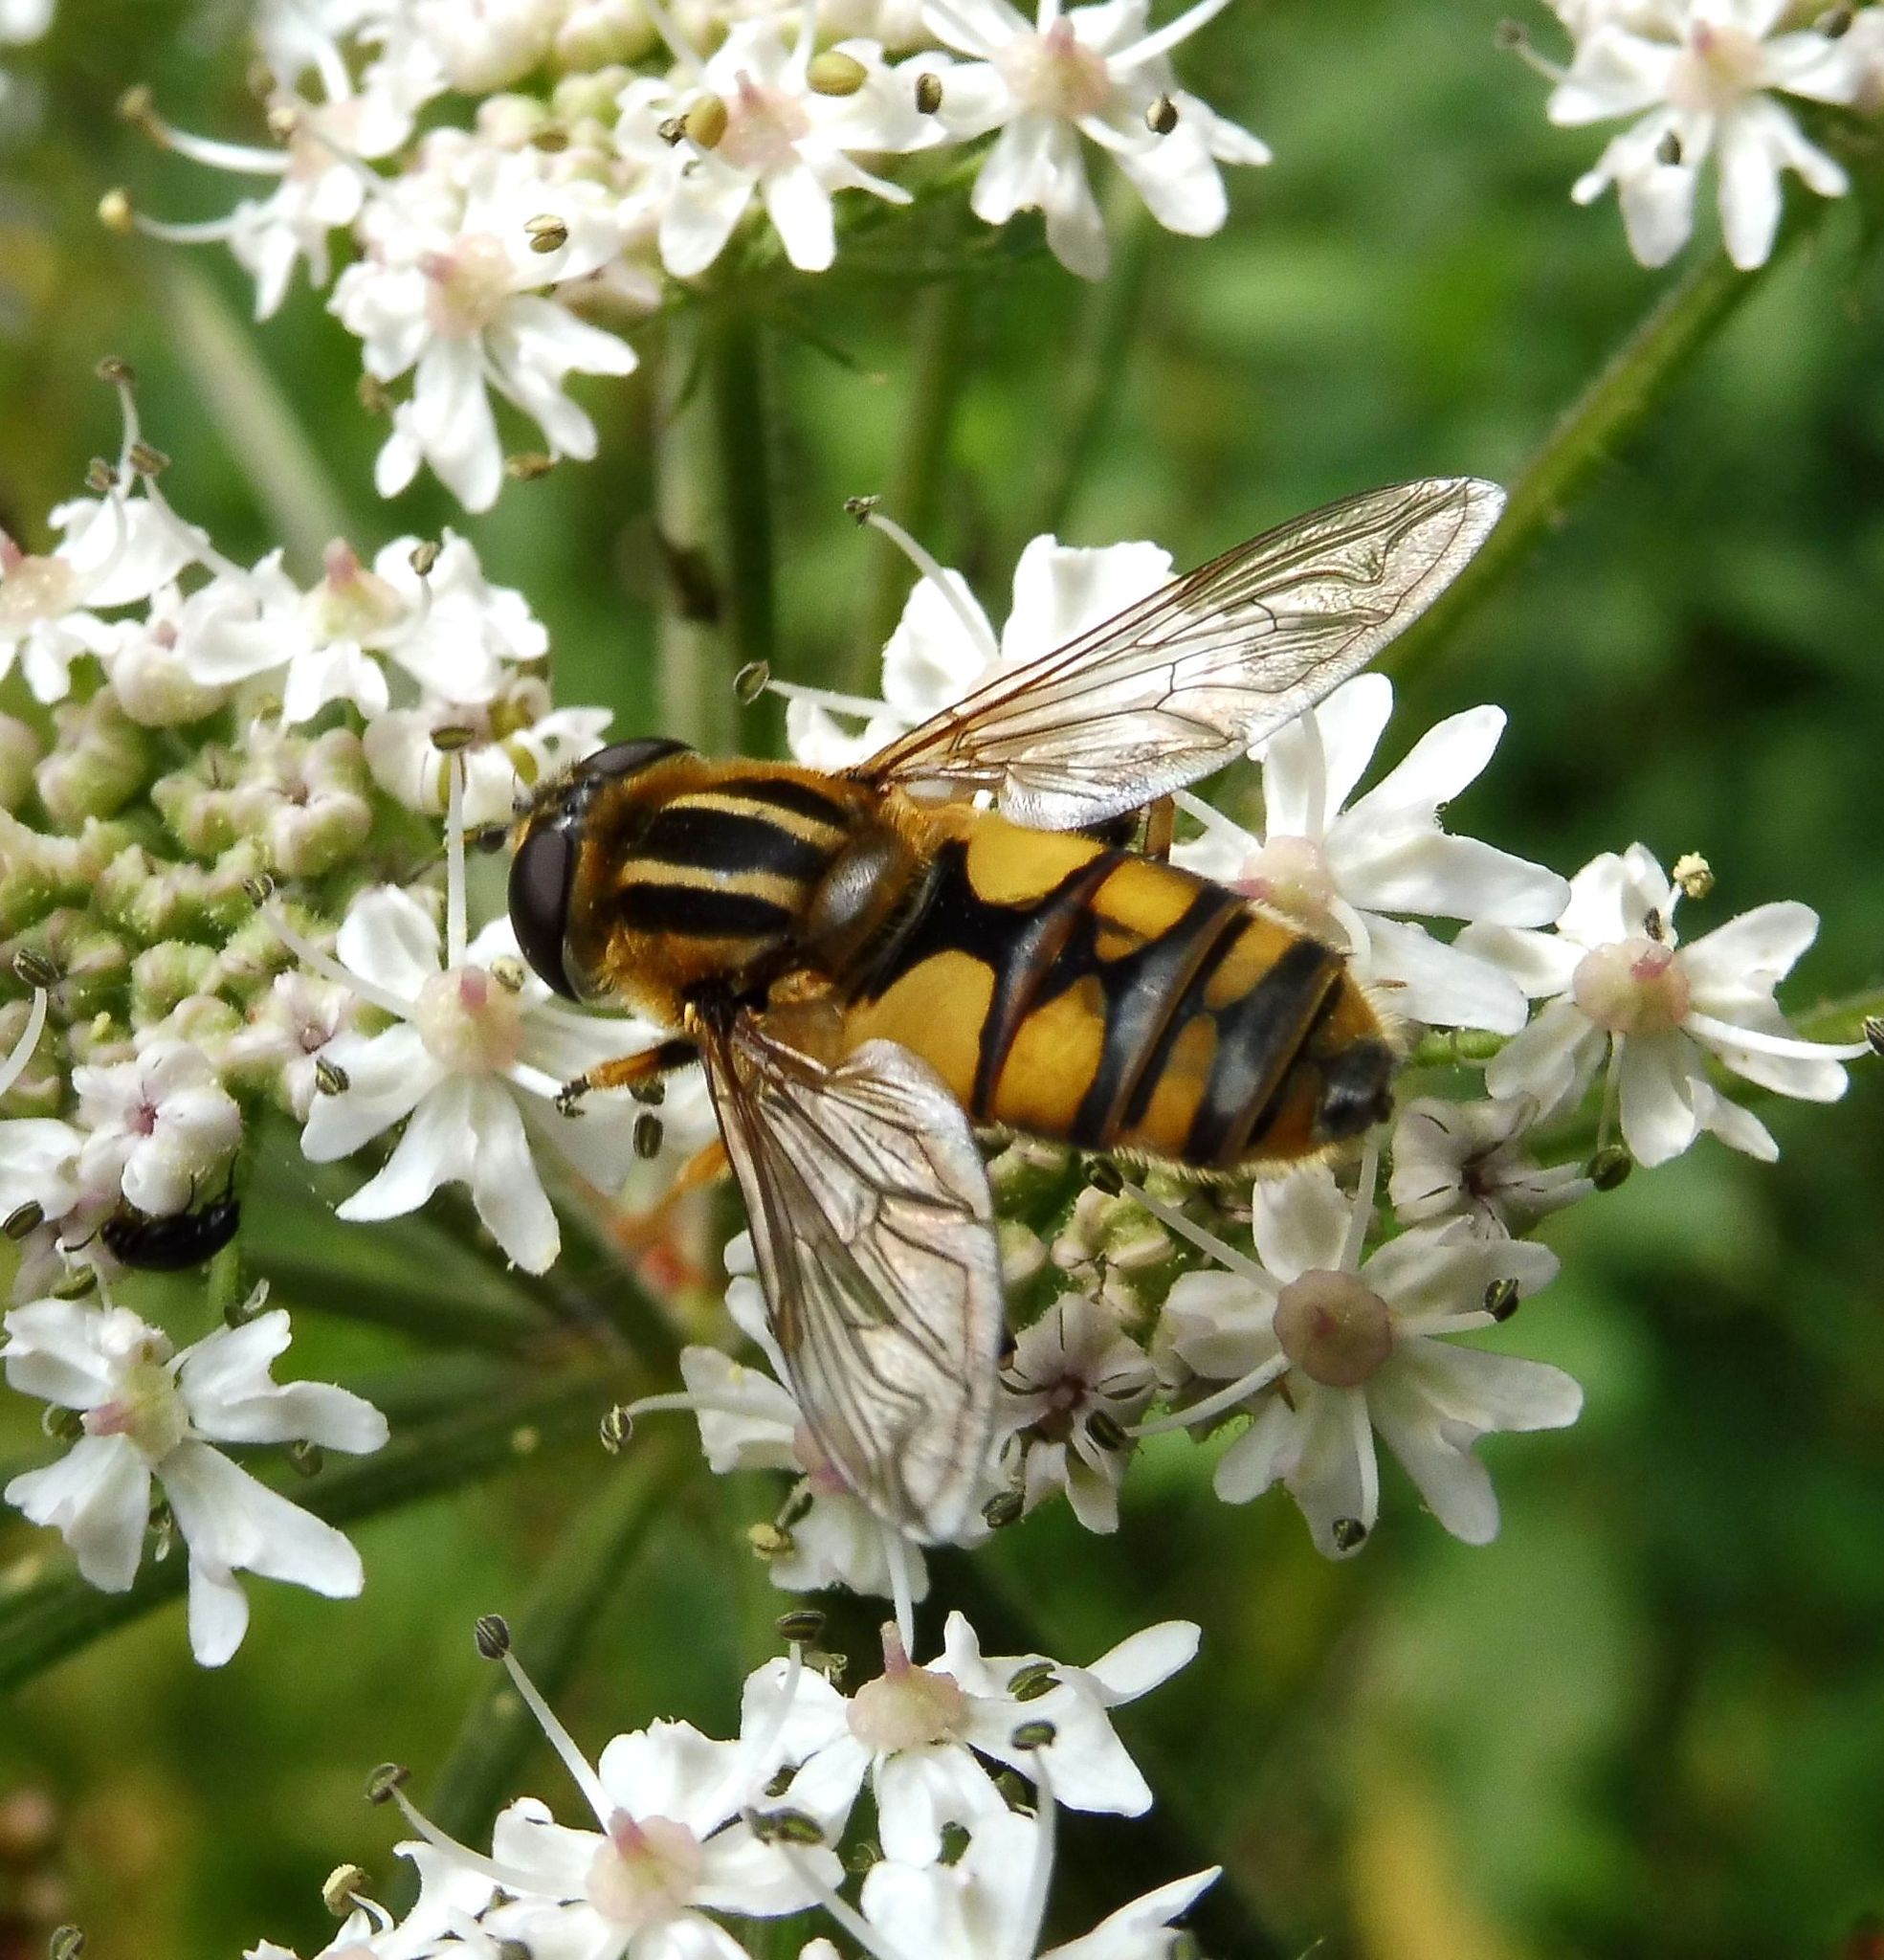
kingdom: Animalia
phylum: Arthropoda
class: Insecta
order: Diptera
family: Syrphidae
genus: Helophilus
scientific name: Helophilus hybridus
